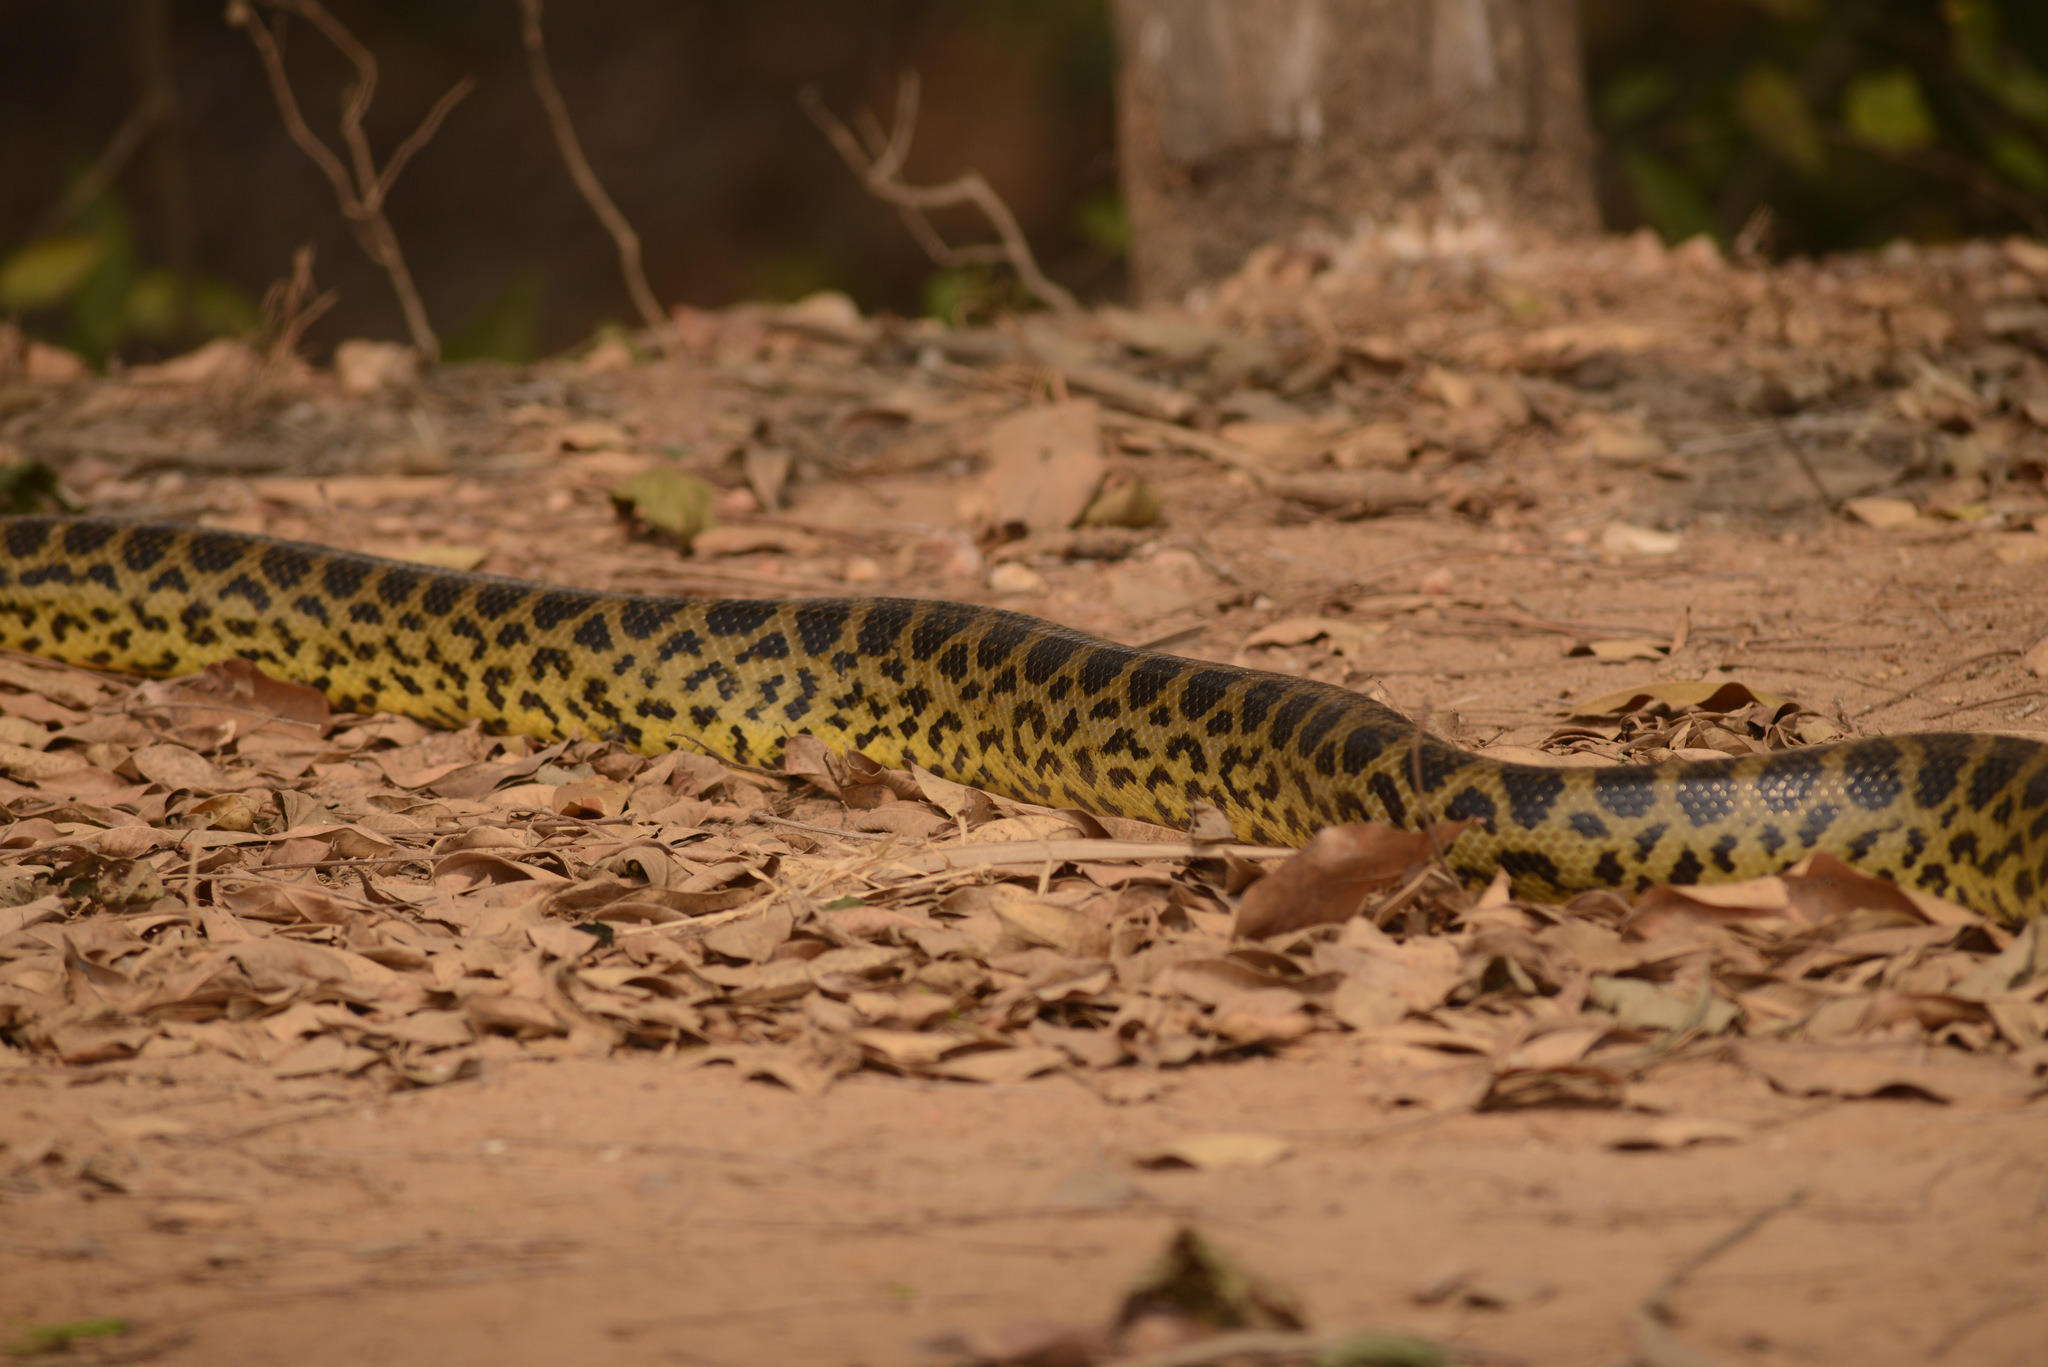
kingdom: Animalia
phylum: Chordata
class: Squamata
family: Boidae
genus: Eunectes
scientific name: Eunectes notaeus
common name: Yellow anaconda
